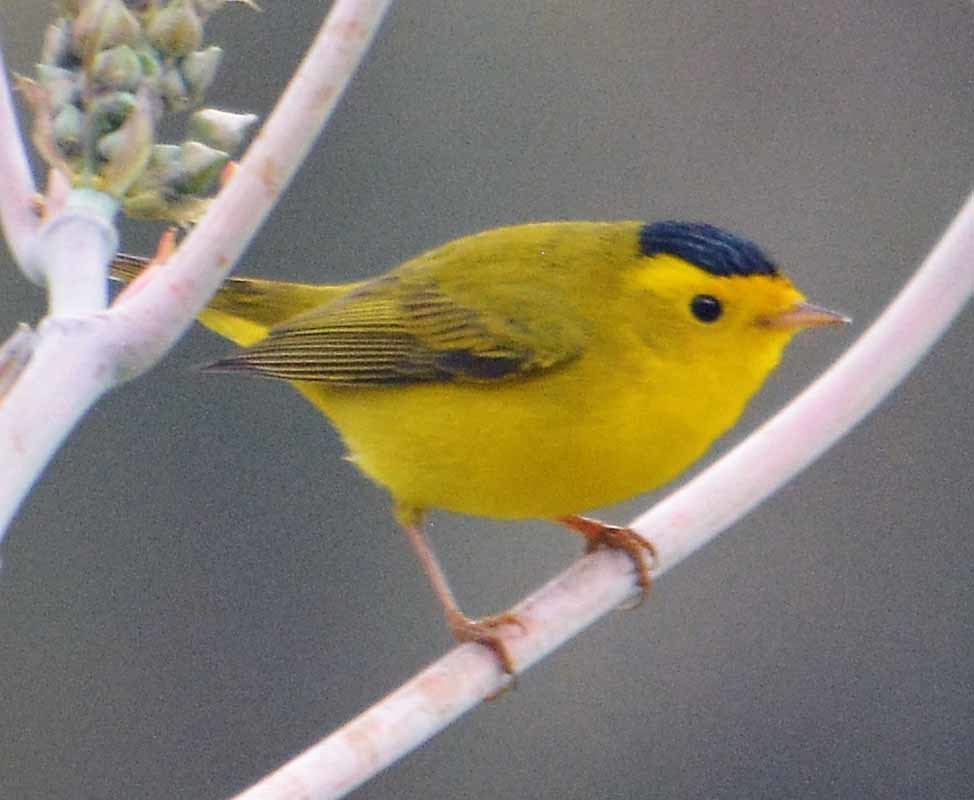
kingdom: Animalia
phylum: Chordata
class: Aves
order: Passeriformes
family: Parulidae
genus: Cardellina
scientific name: Cardellina pusilla
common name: Wilson's warbler
